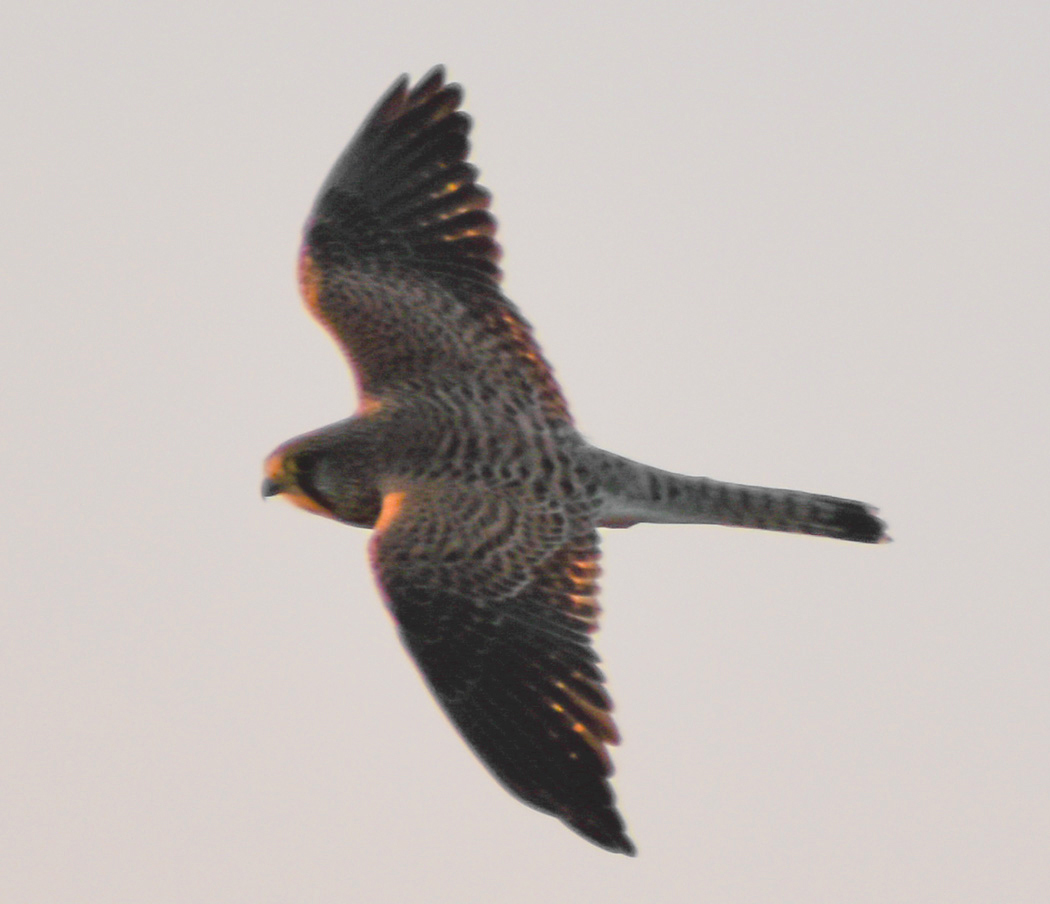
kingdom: Animalia
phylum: Chordata
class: Aves
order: Falconiformes
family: Falconidae
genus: Falco
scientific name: Falco tinnunculus
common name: Common kestrel
